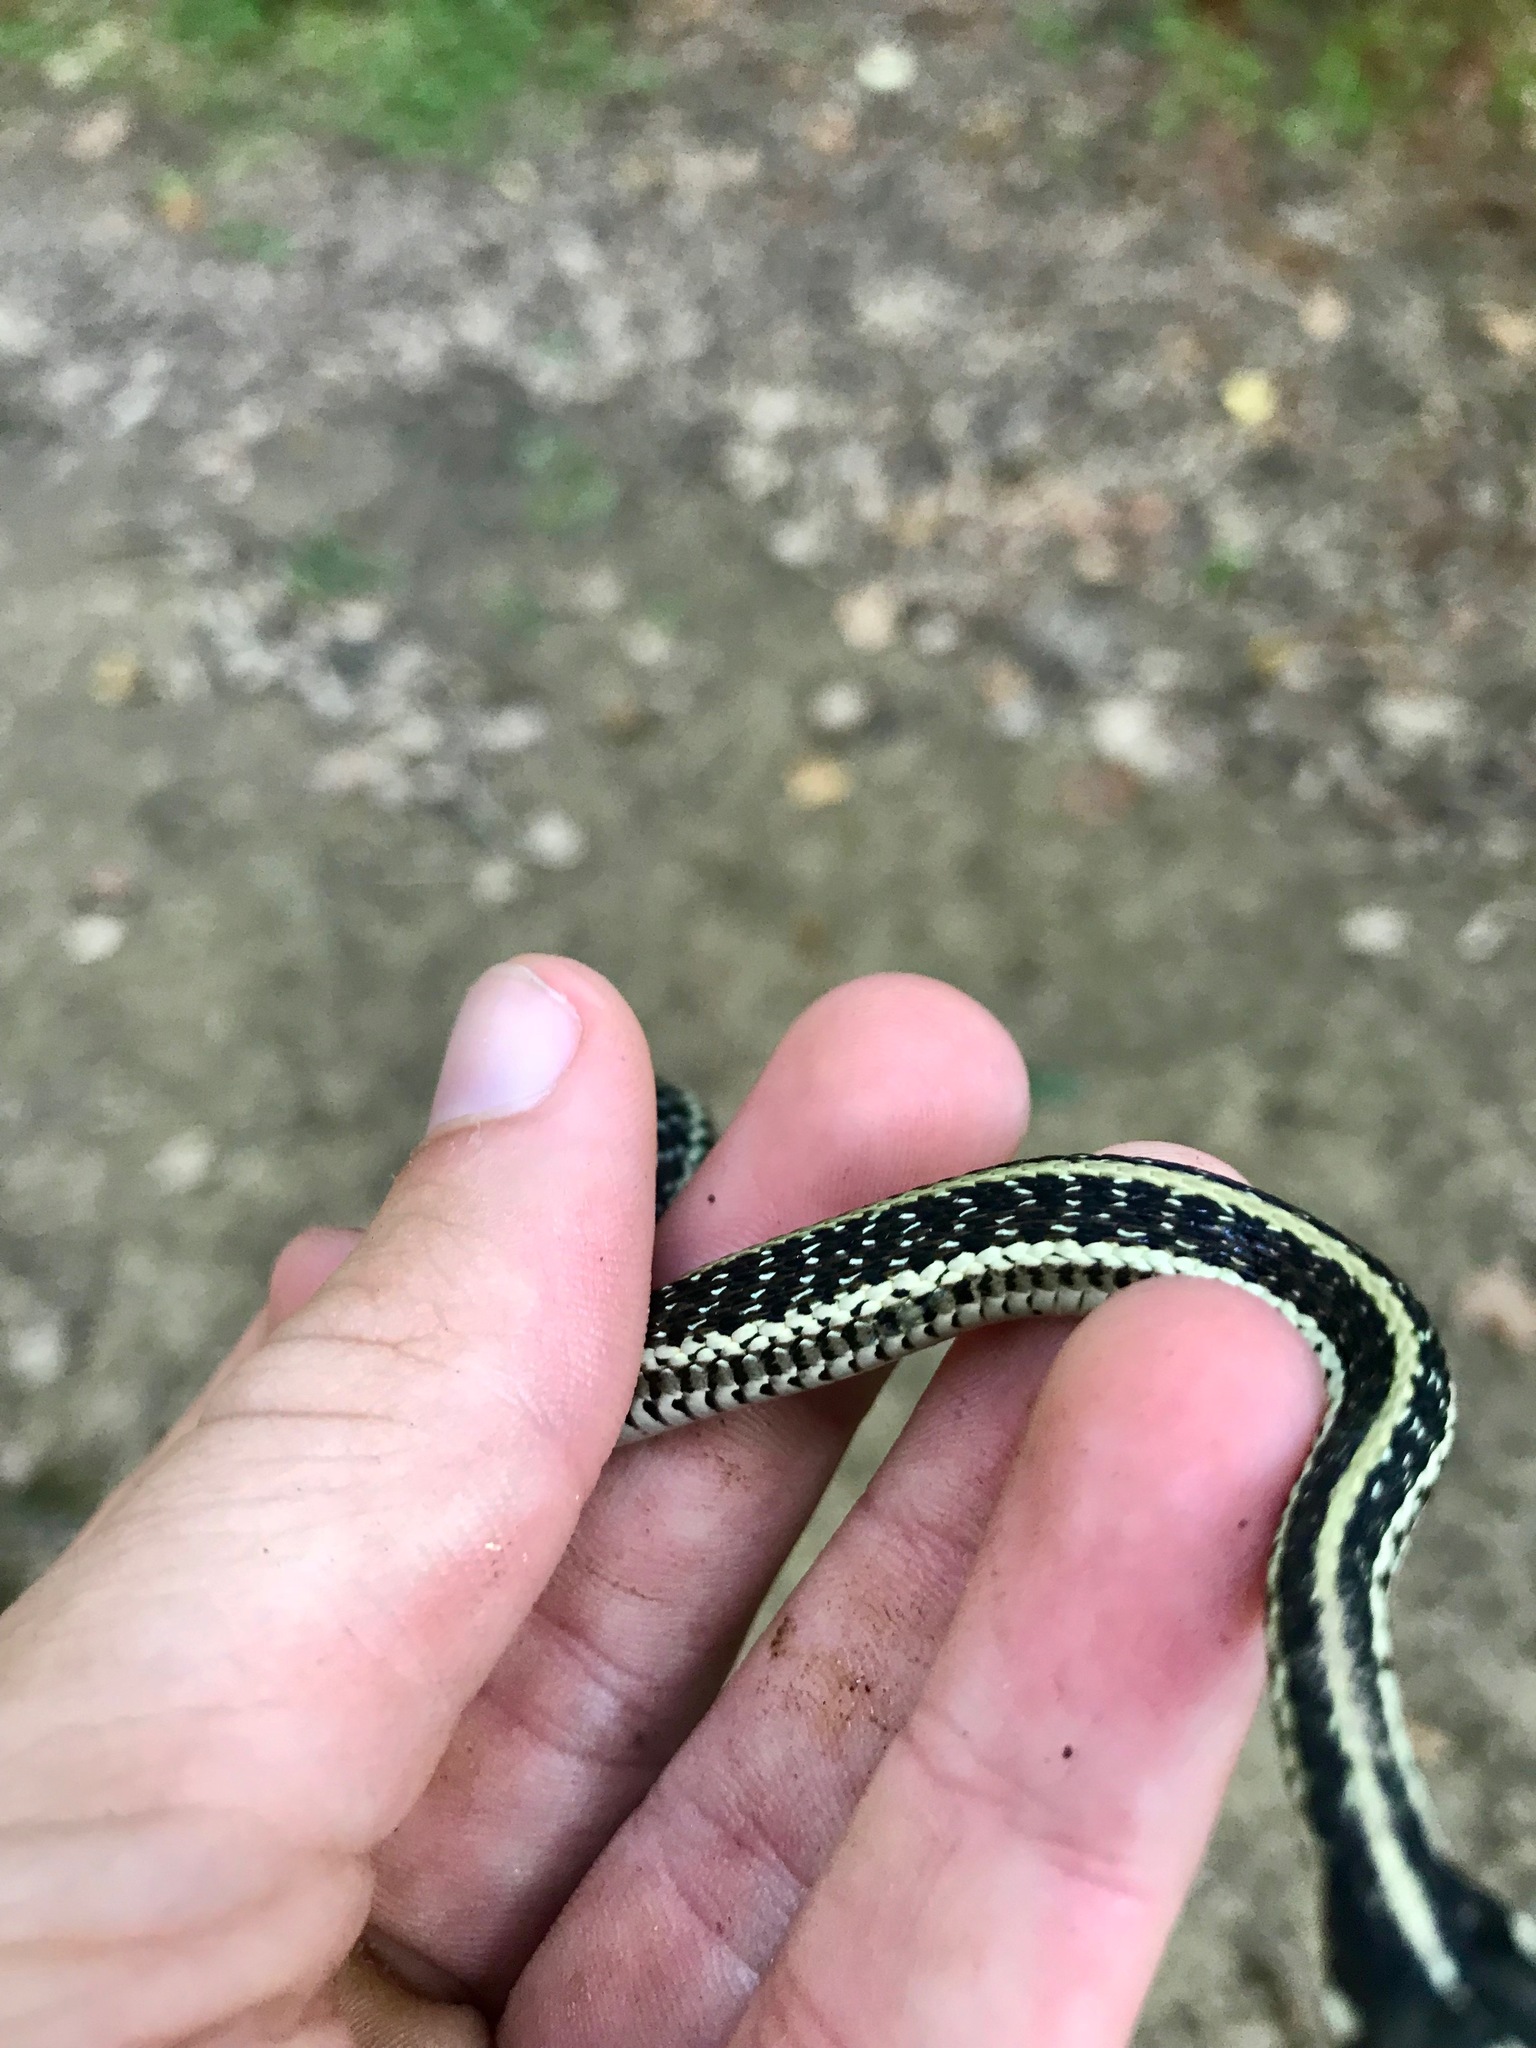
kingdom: Animalia
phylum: Chordata
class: Squamata
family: Colubridae
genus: Thamnophis
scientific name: Thamnophis sirtalis
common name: Common garter snake
